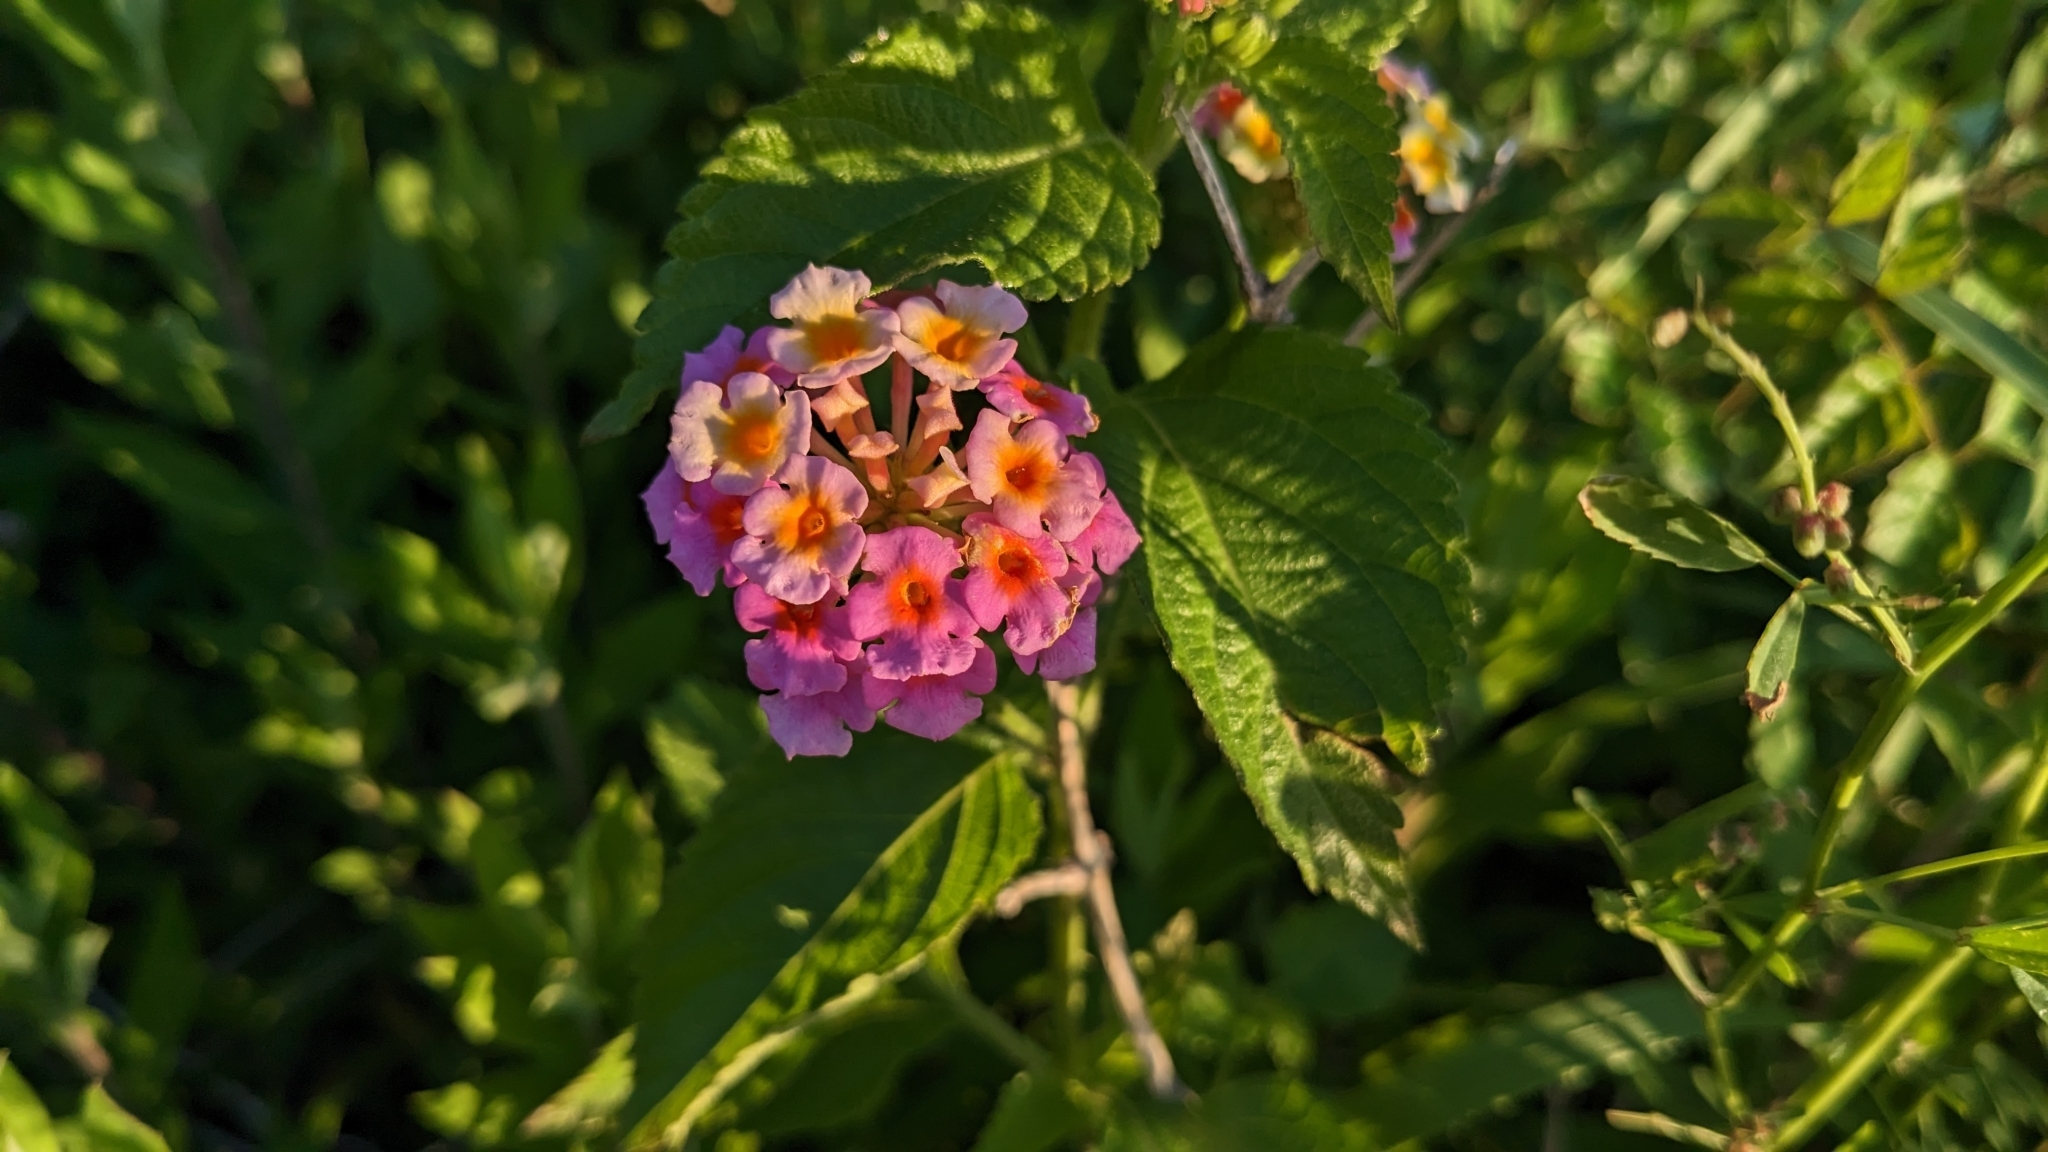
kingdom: Plantae
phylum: Tracheophyta
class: Magnoliopsida
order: Lamiales
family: Verbenaceae
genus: Lantana
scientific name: Lantana strigocamara
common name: Lantana
